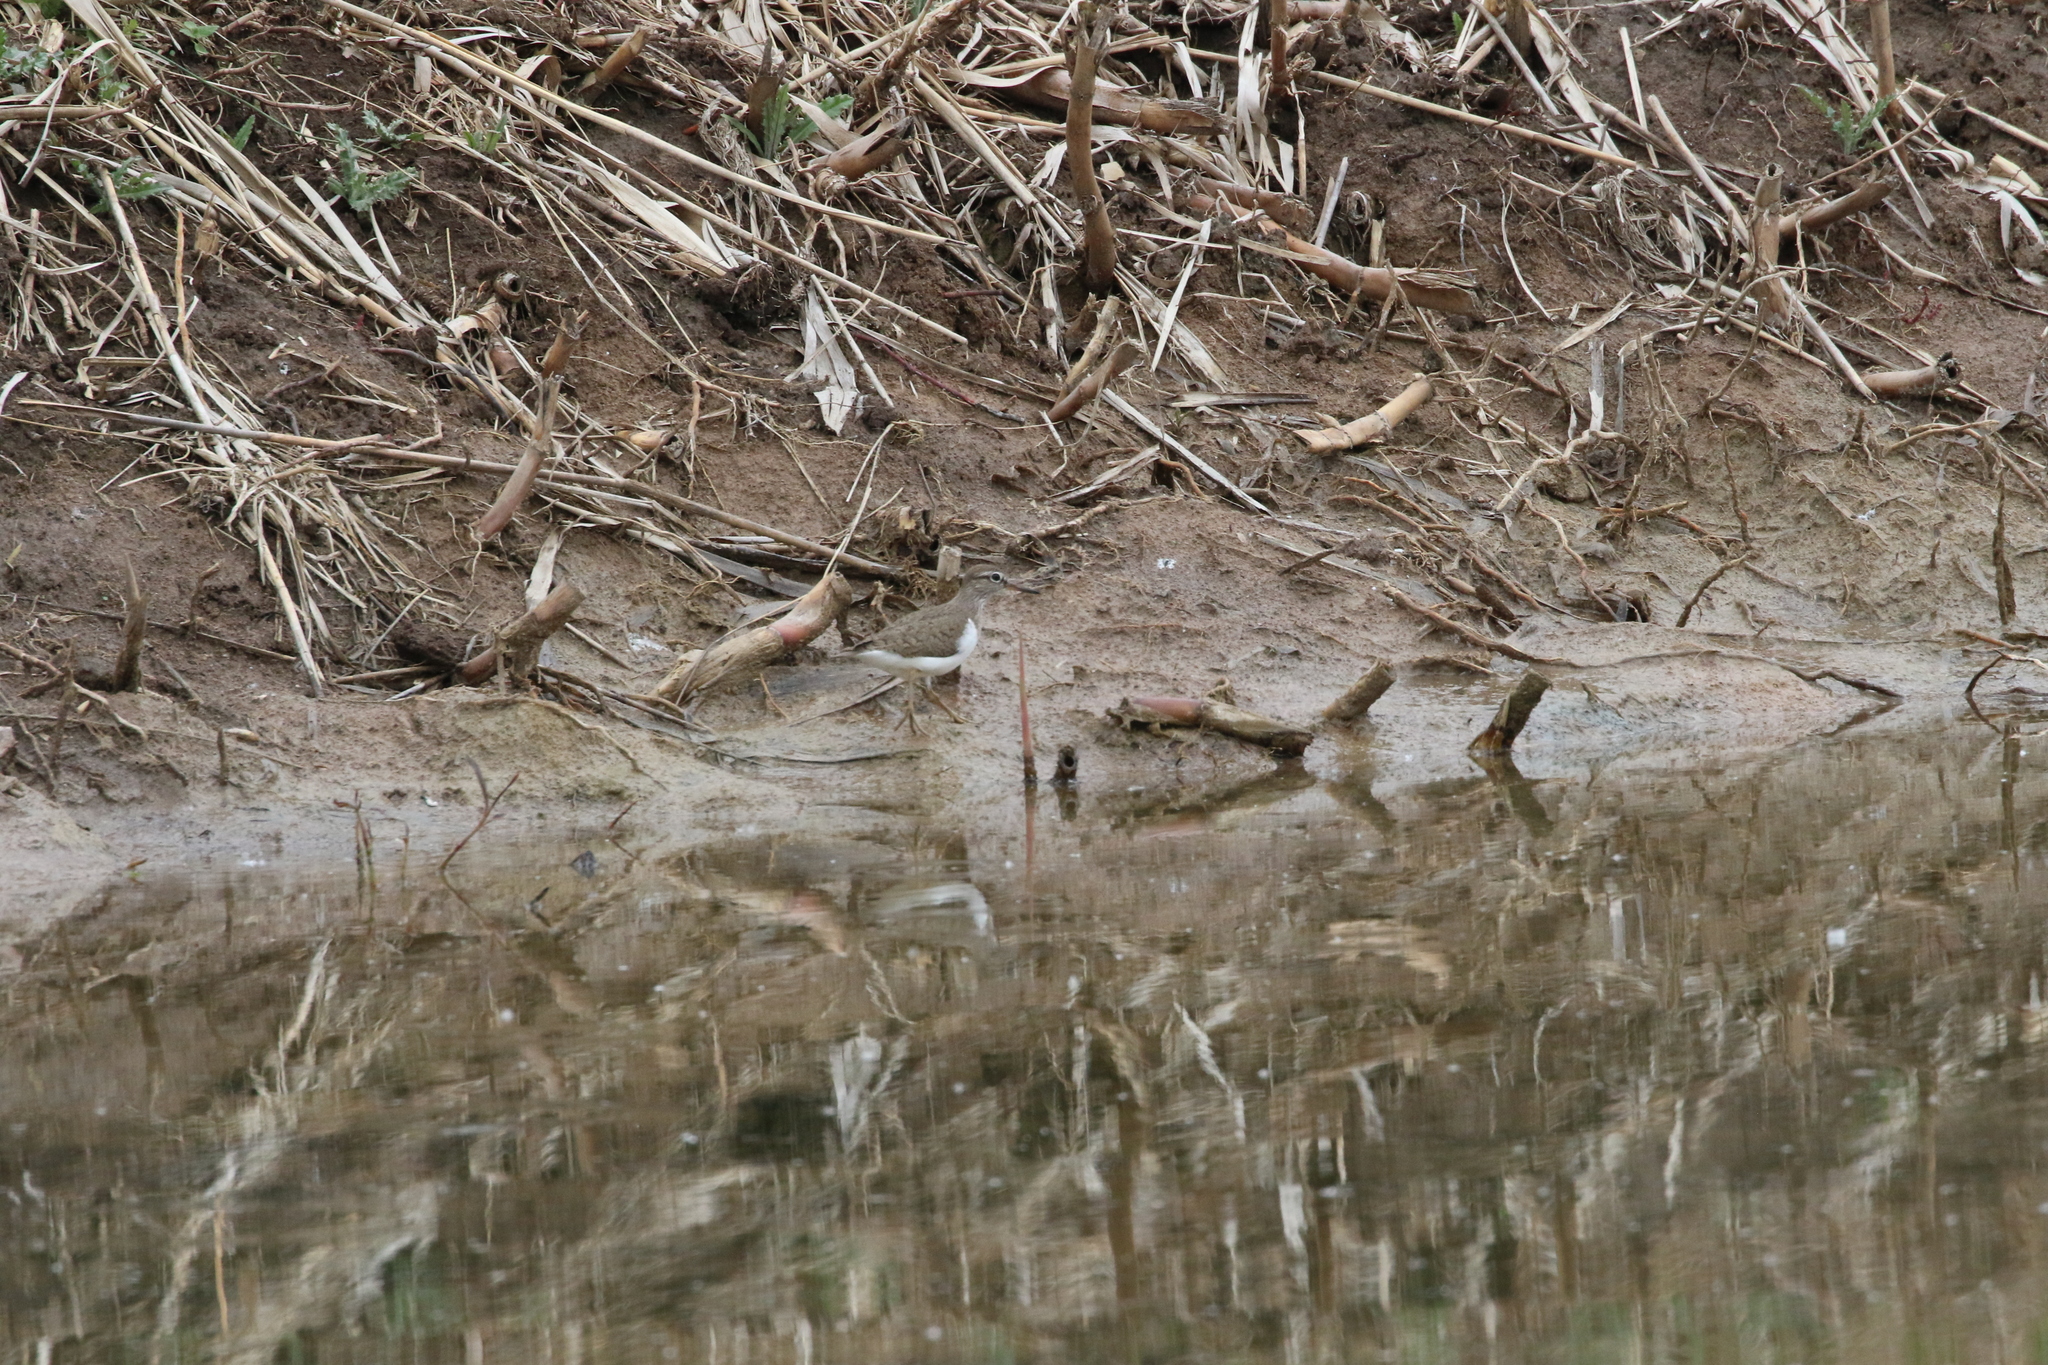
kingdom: Animalia
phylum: Chordata
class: Aves
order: Charadriiformes
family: Scolopacidae
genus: Actitis
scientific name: Actitis hypoleucos
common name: Common sandpiper
